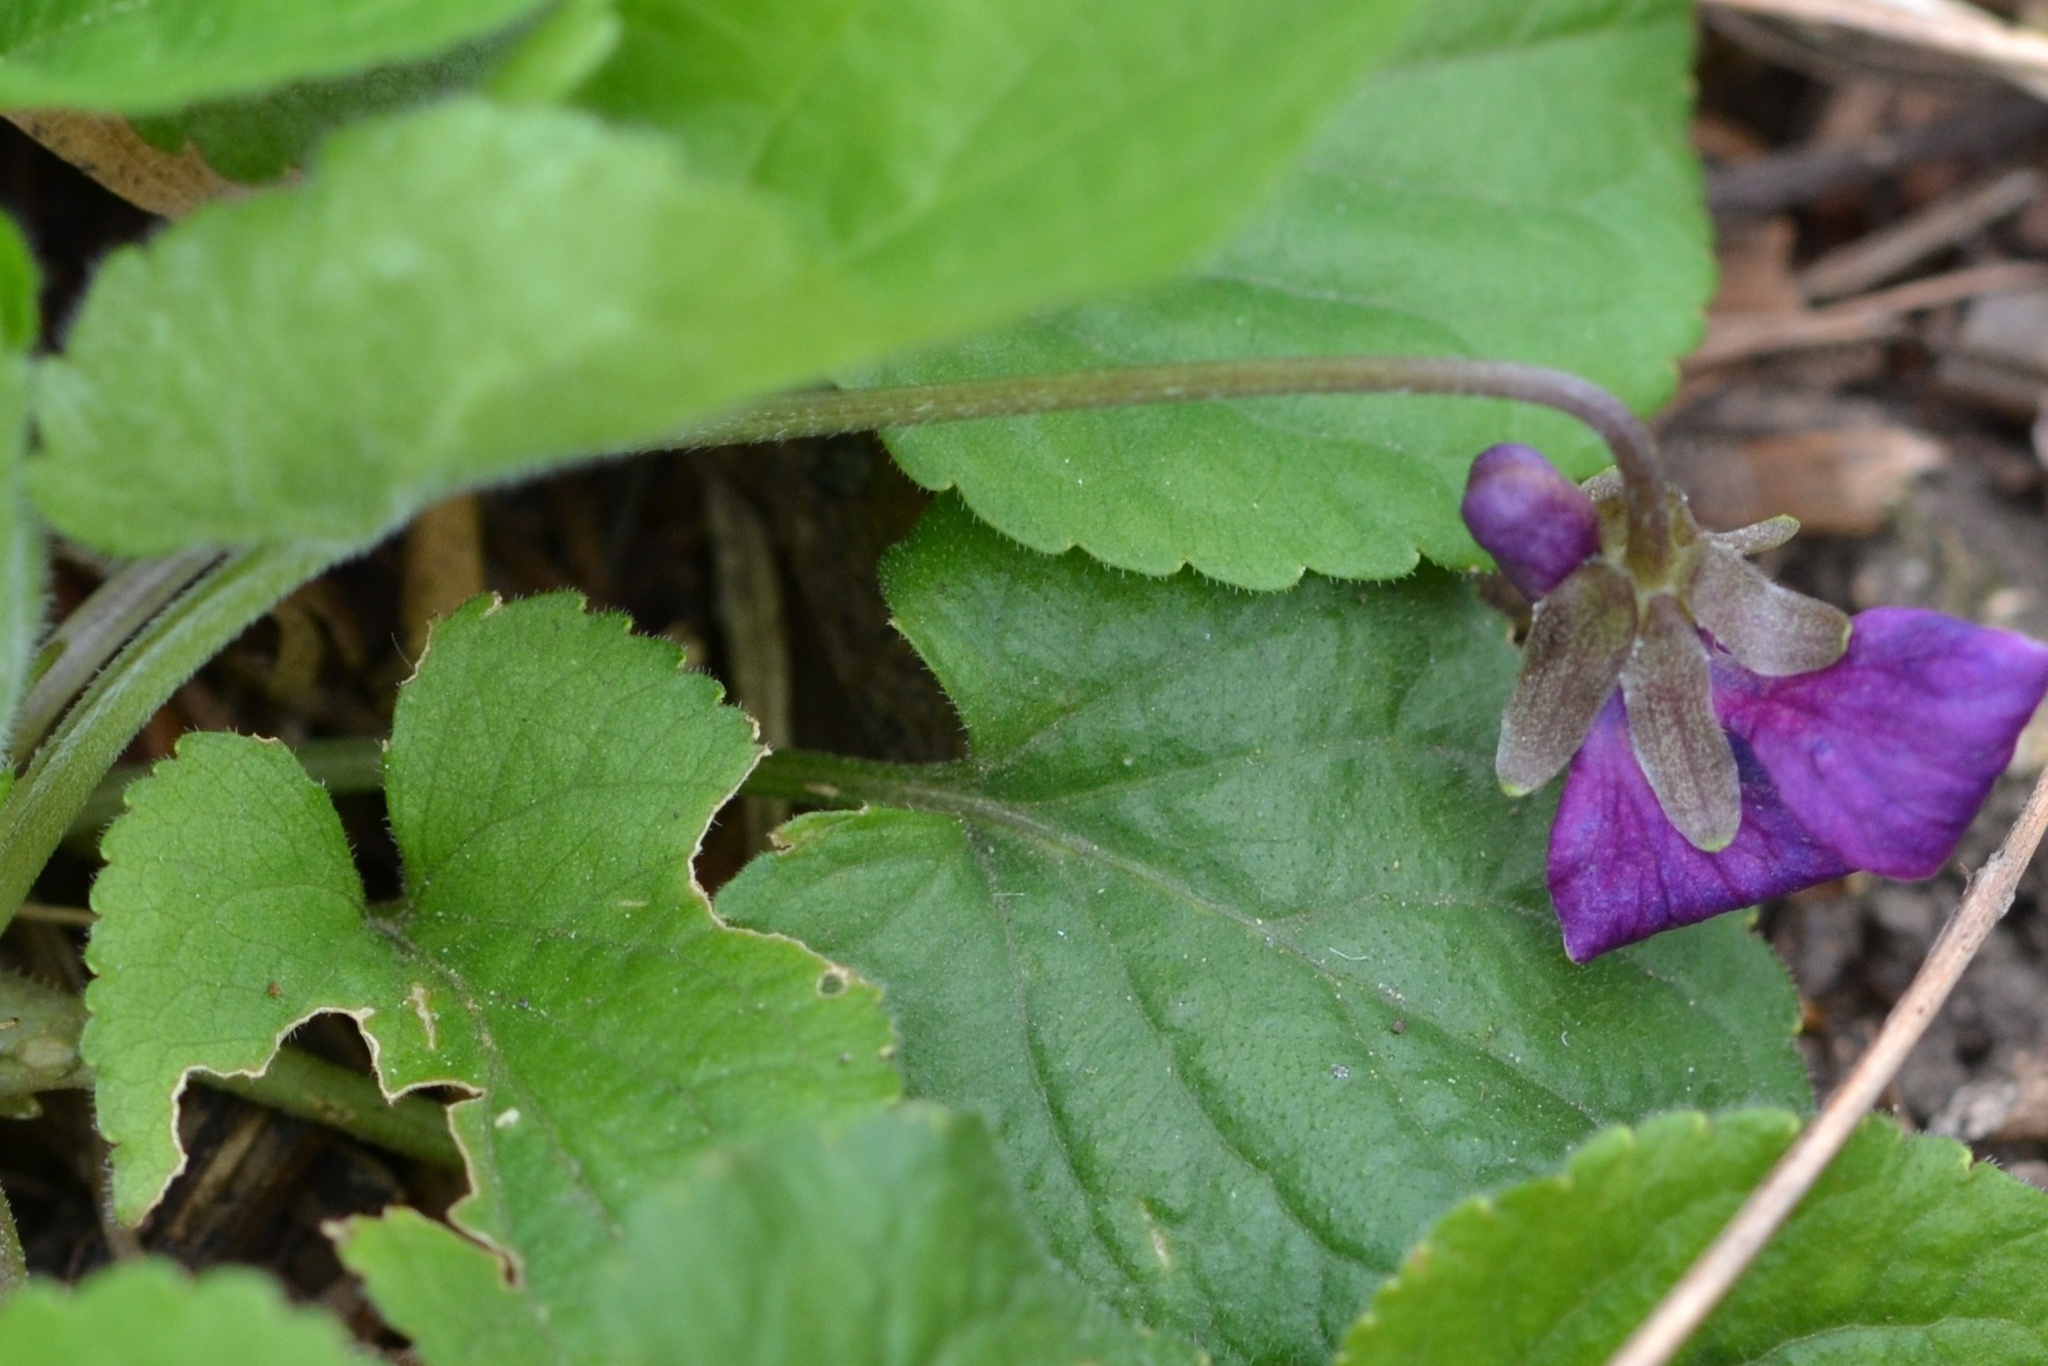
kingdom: Plantae
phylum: Tracheophyta
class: Magnoliopsida
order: Malpighiales
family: Violaceae
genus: Viola
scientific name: Viola odorata
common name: Sweet violet
